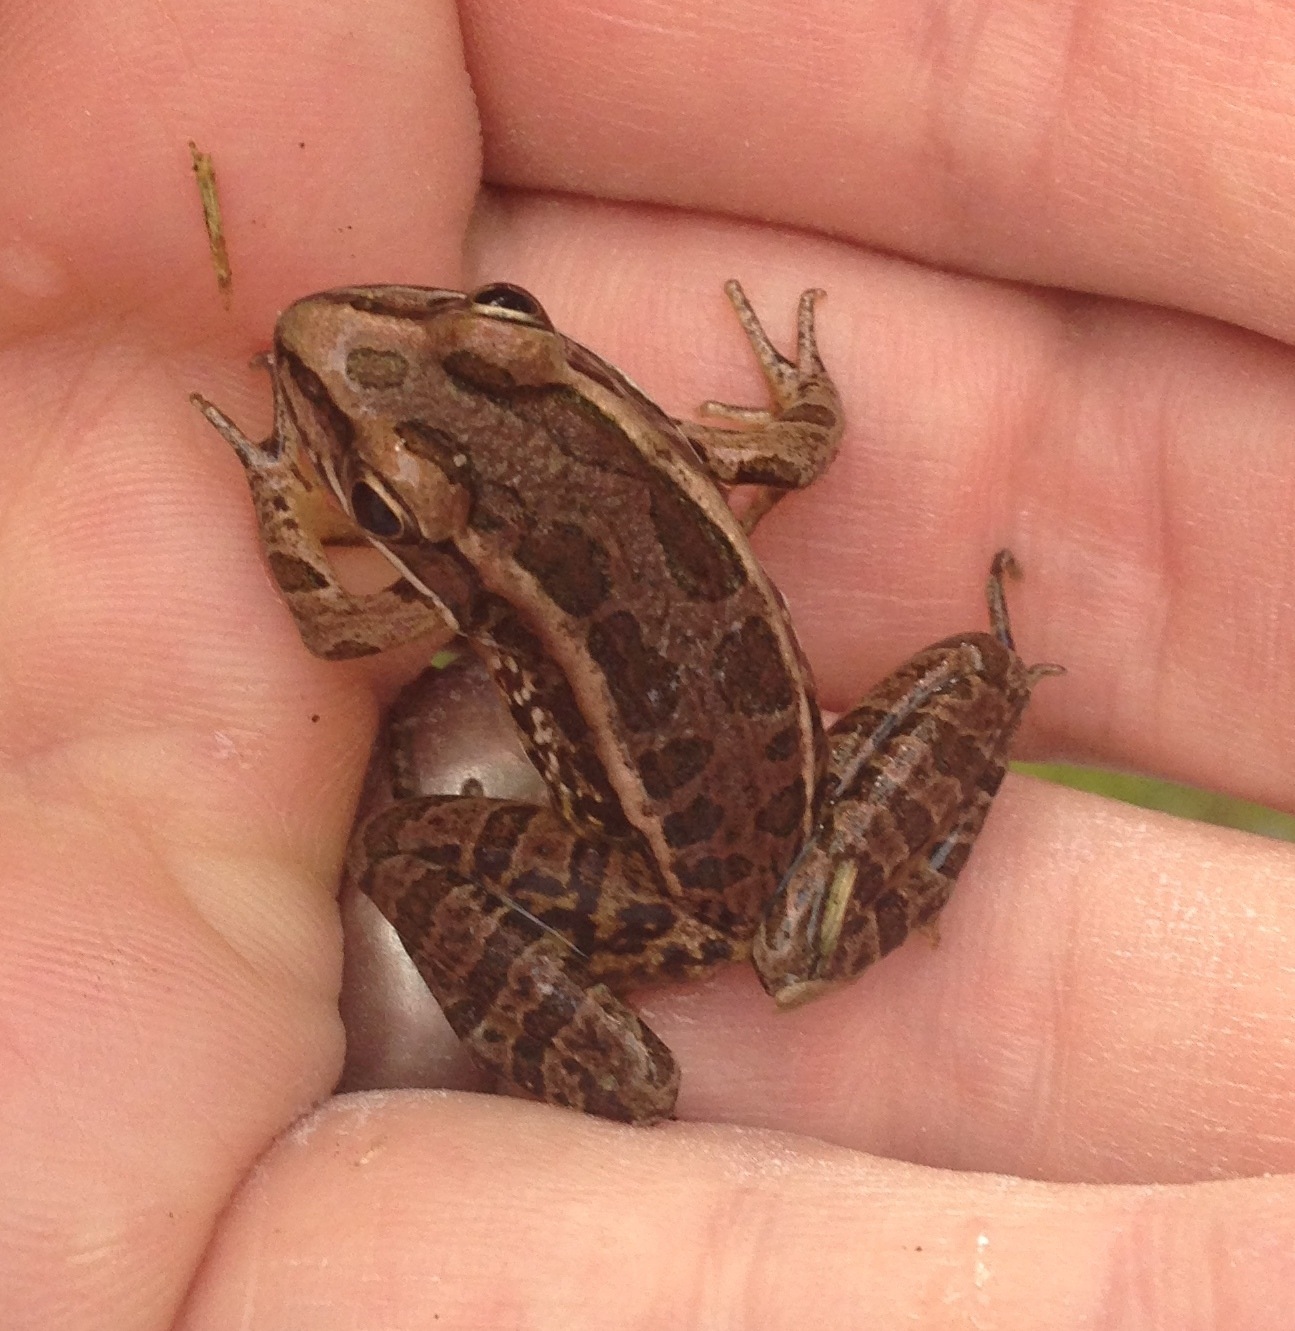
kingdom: Animalia
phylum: Chordata
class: Amphibia
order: Anura
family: Ranidae
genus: Lithobates
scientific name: Lithobates palustris
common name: Pickerel frog
